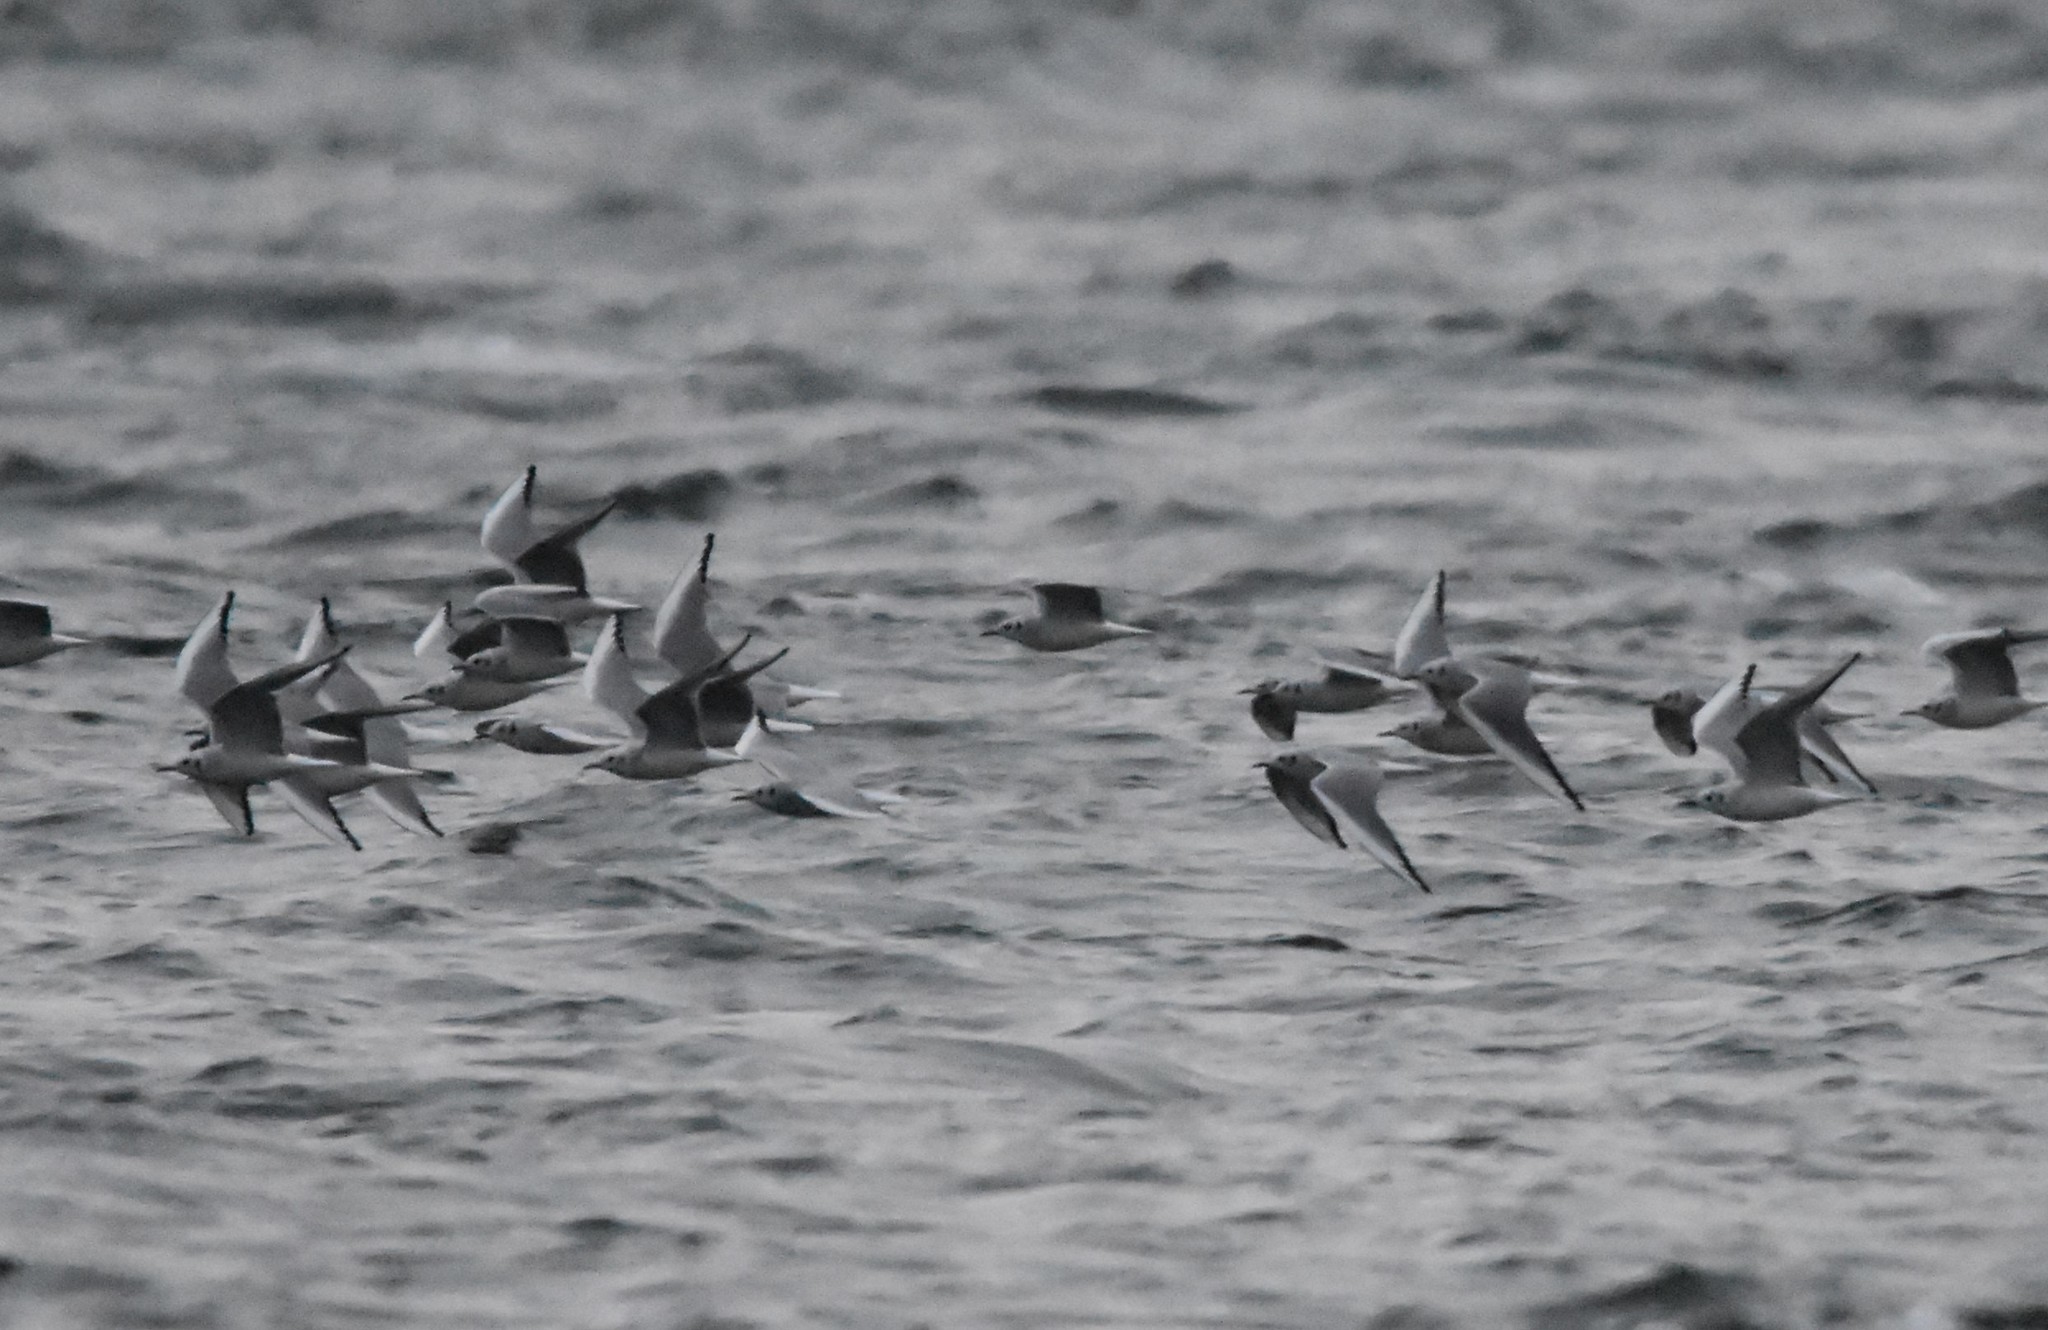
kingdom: Animalia
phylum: Chordata
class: Aves
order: Charadriiformes
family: Laridae
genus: Chroicocephalus
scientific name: Chroicocephalus philadelphia
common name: Bonaparte's gull
